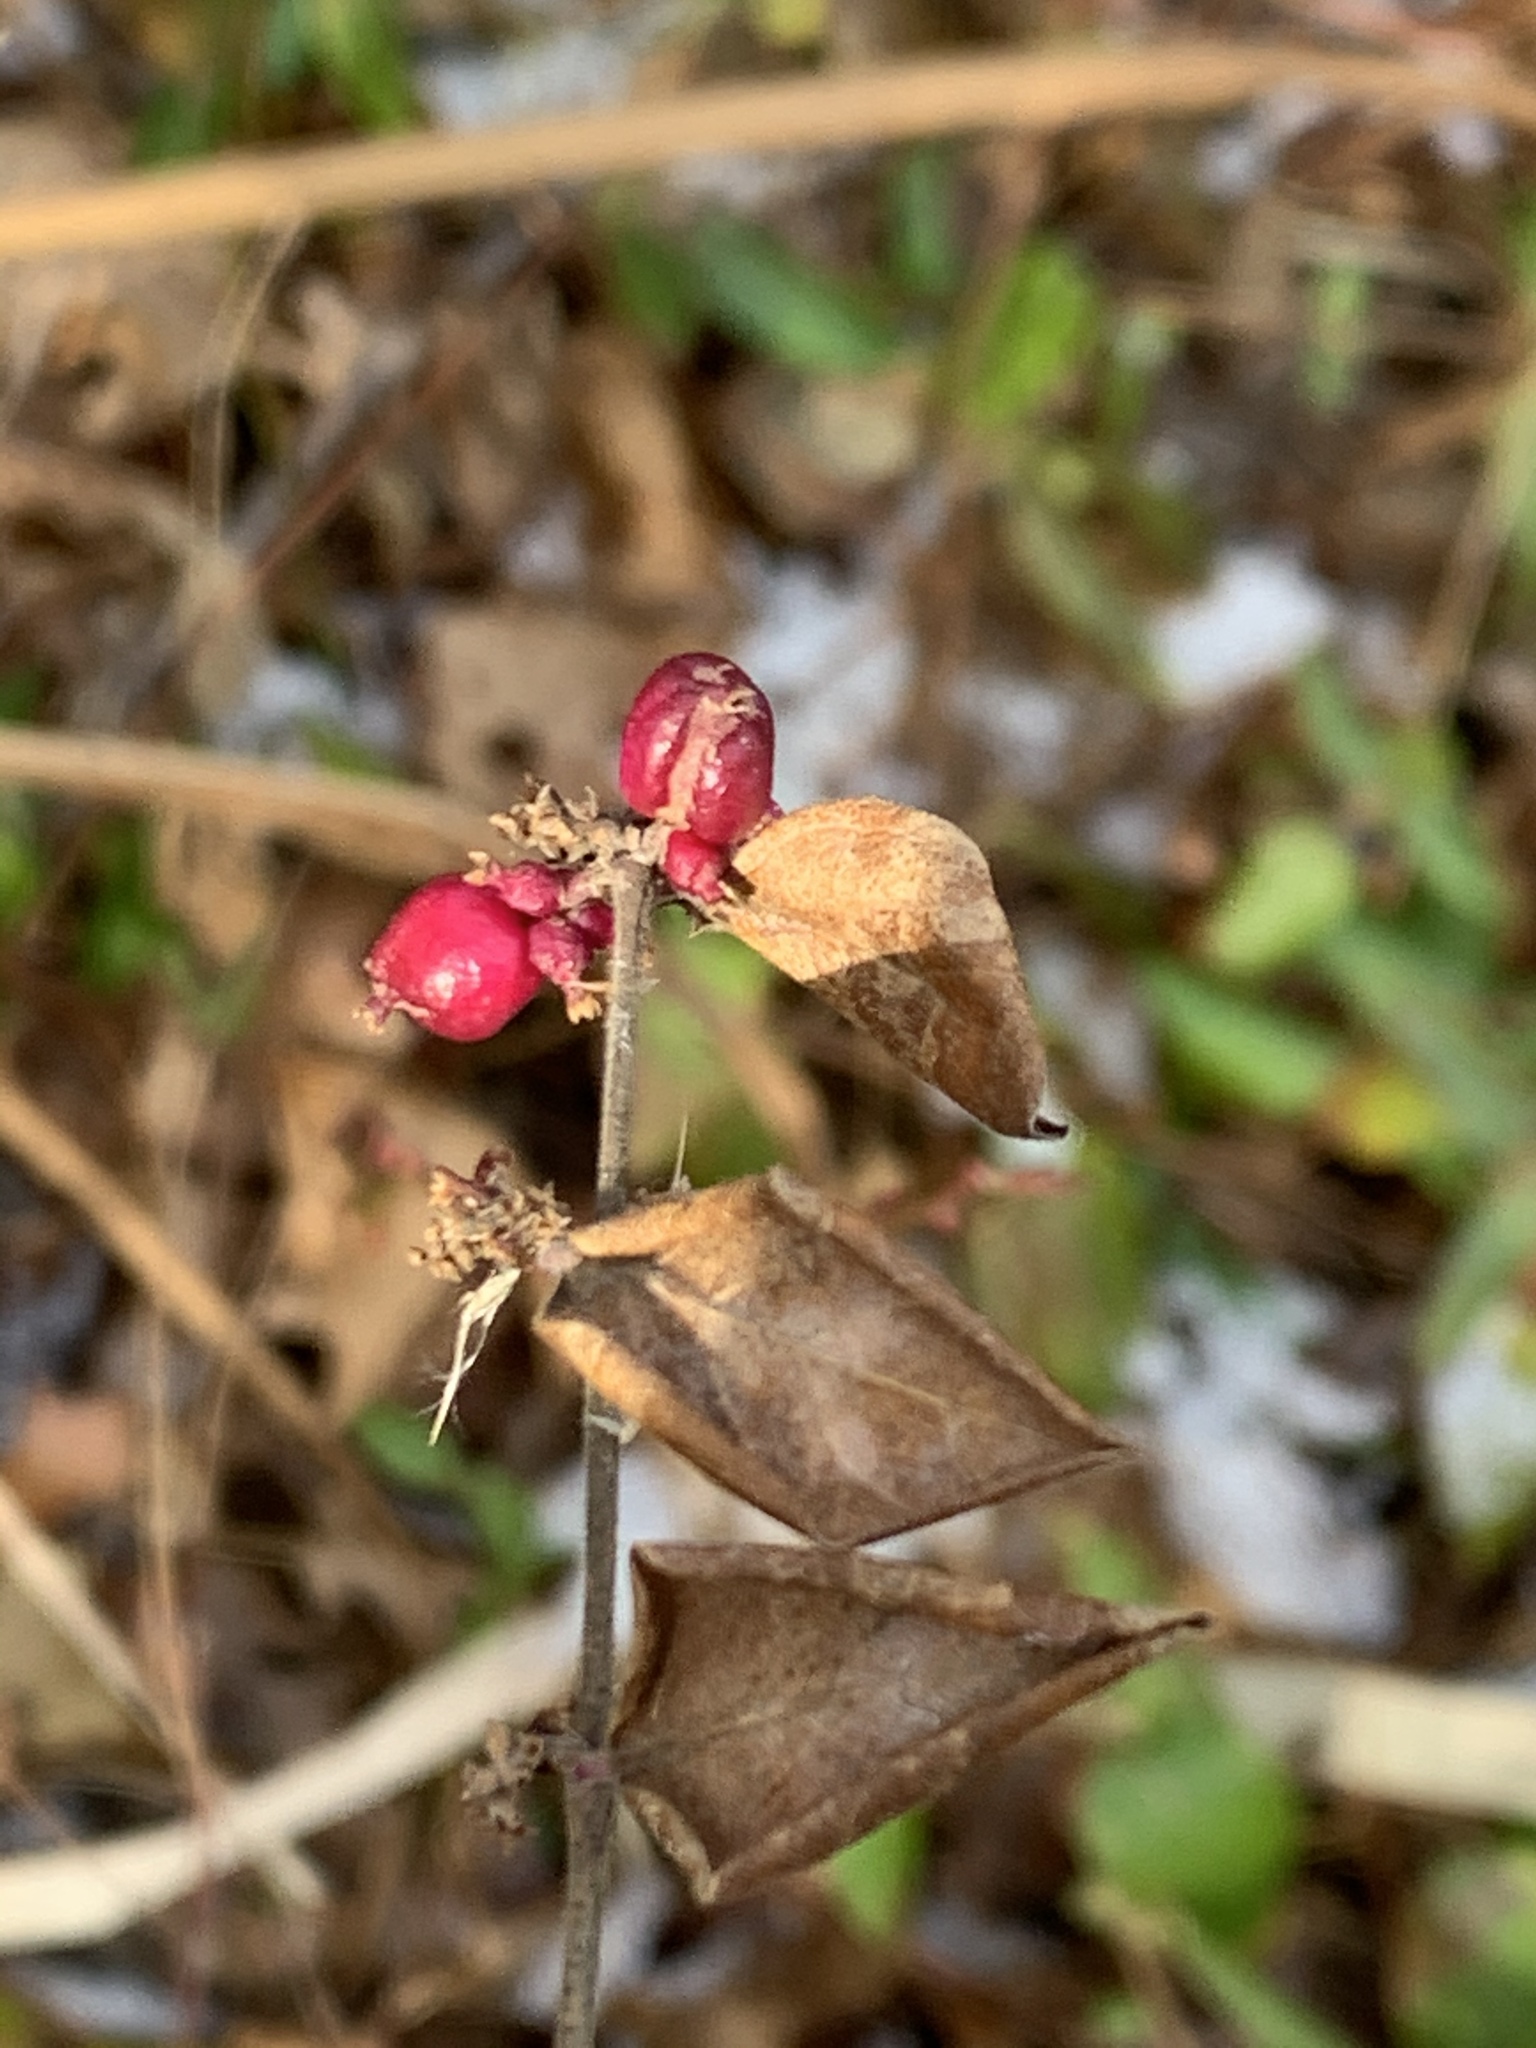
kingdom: Plantae
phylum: Tracheophyta
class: Magnoliopsida
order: Dipsacales
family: Caprifoliaceae
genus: Symphoricarpos
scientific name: Symphoricarpos orbiculatus
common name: Coralberry
